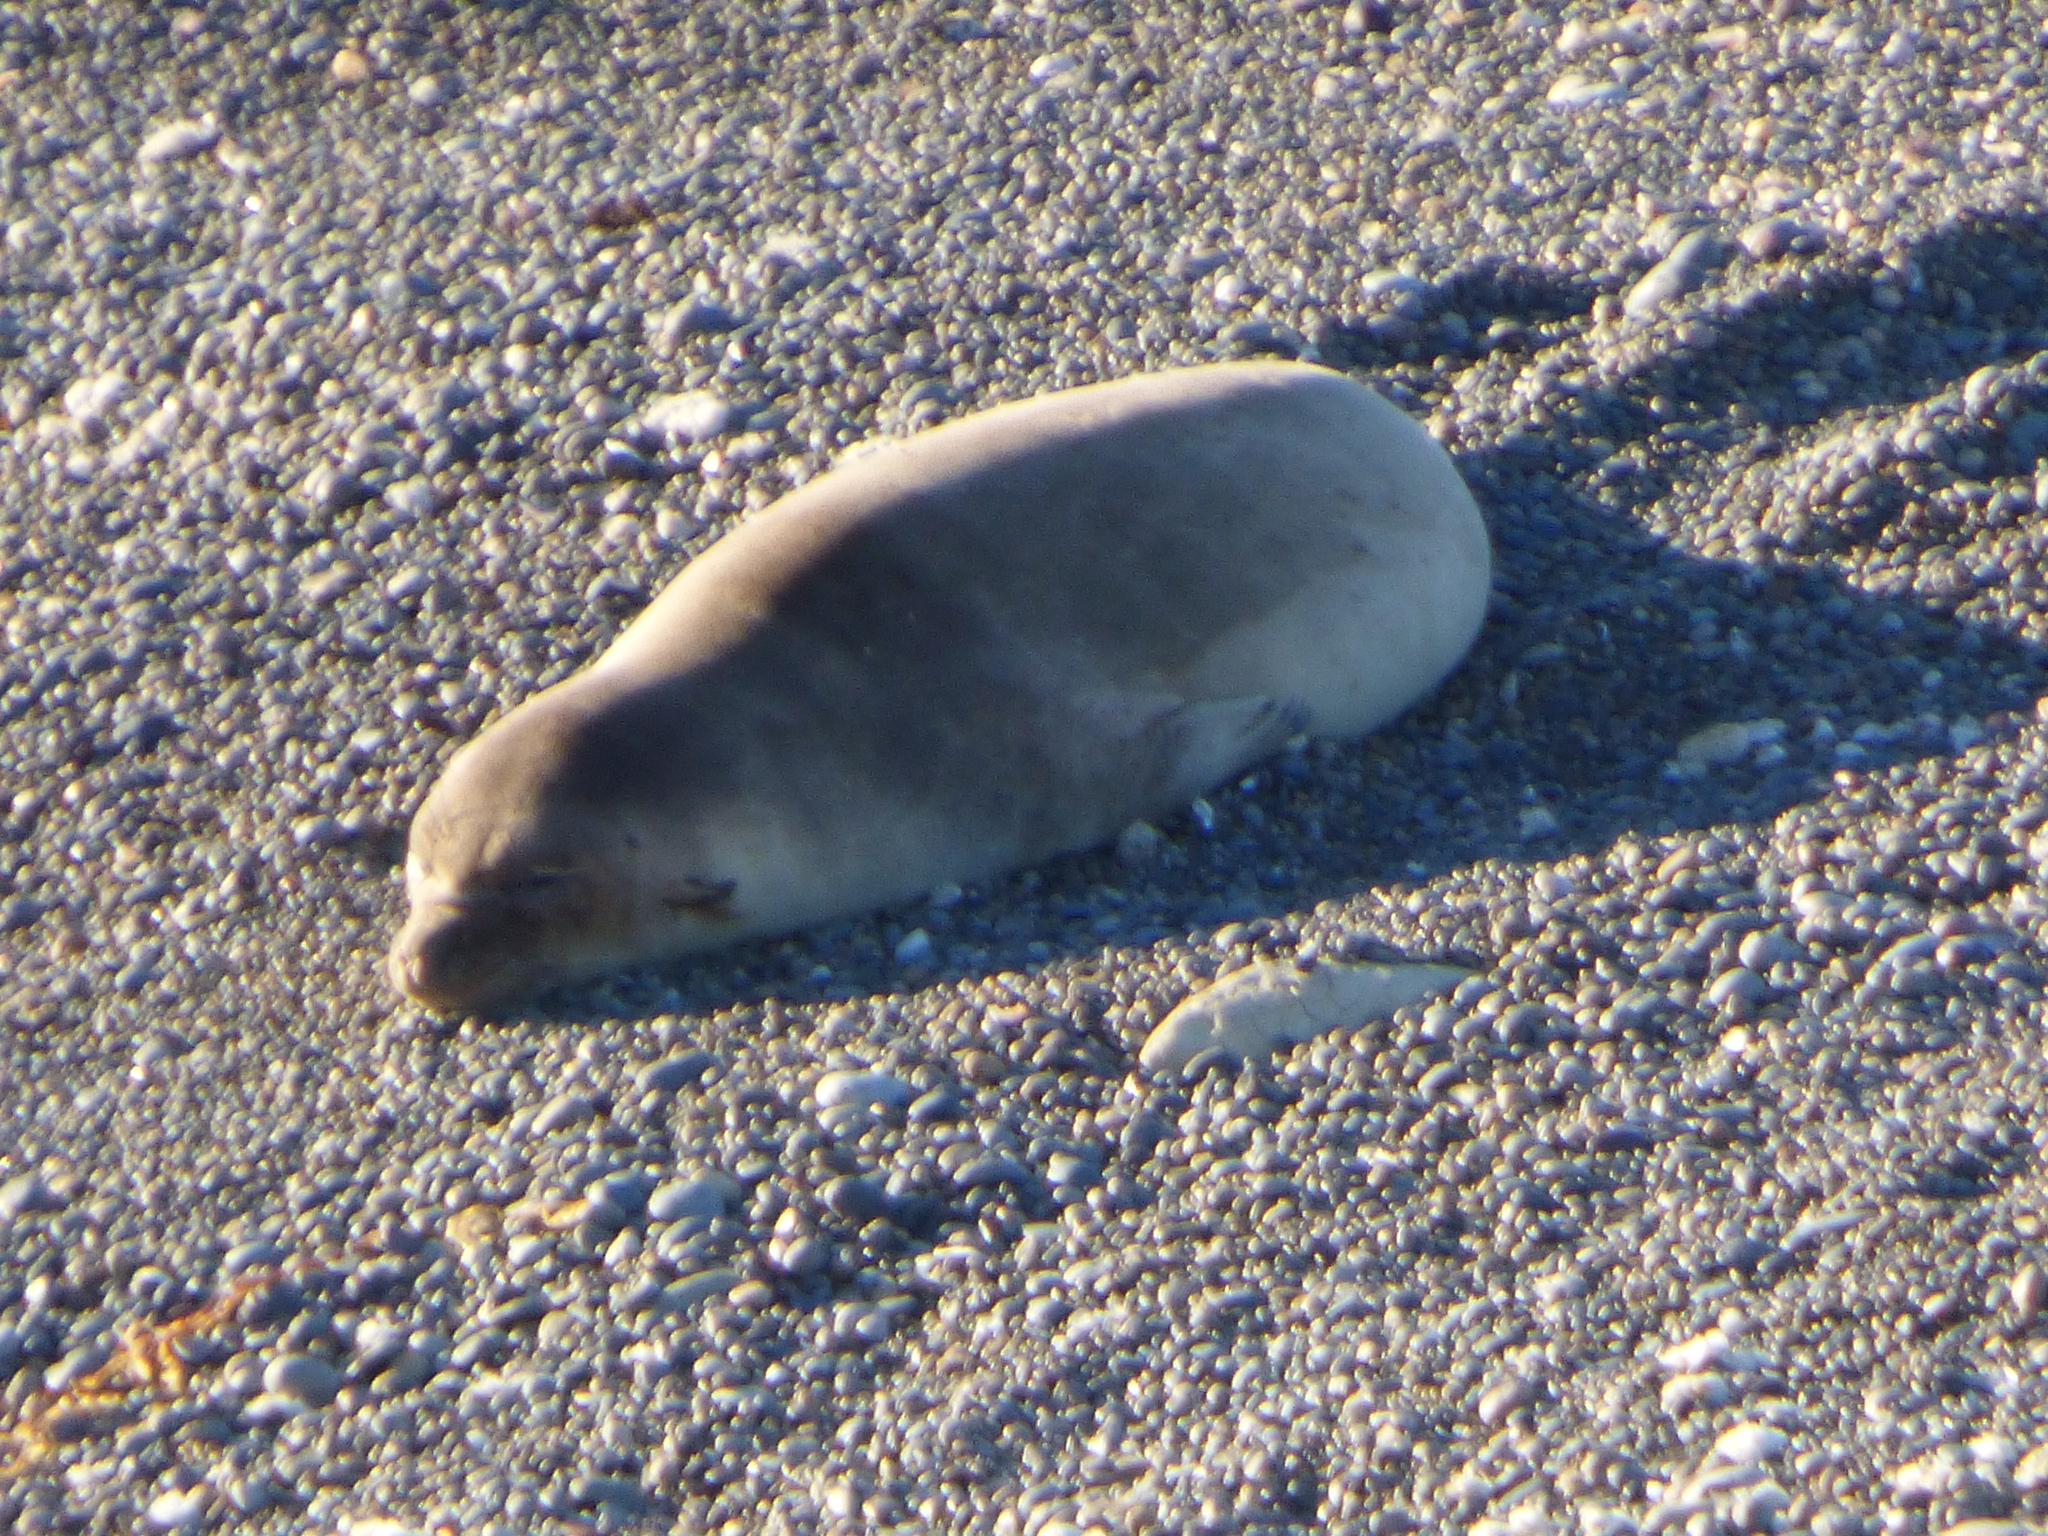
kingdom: Animalia
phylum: Chordata
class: Mammalia
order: Carnivora
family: Phocidae
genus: Mirounga
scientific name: Mirounga leonina
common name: Southern elephant seal
